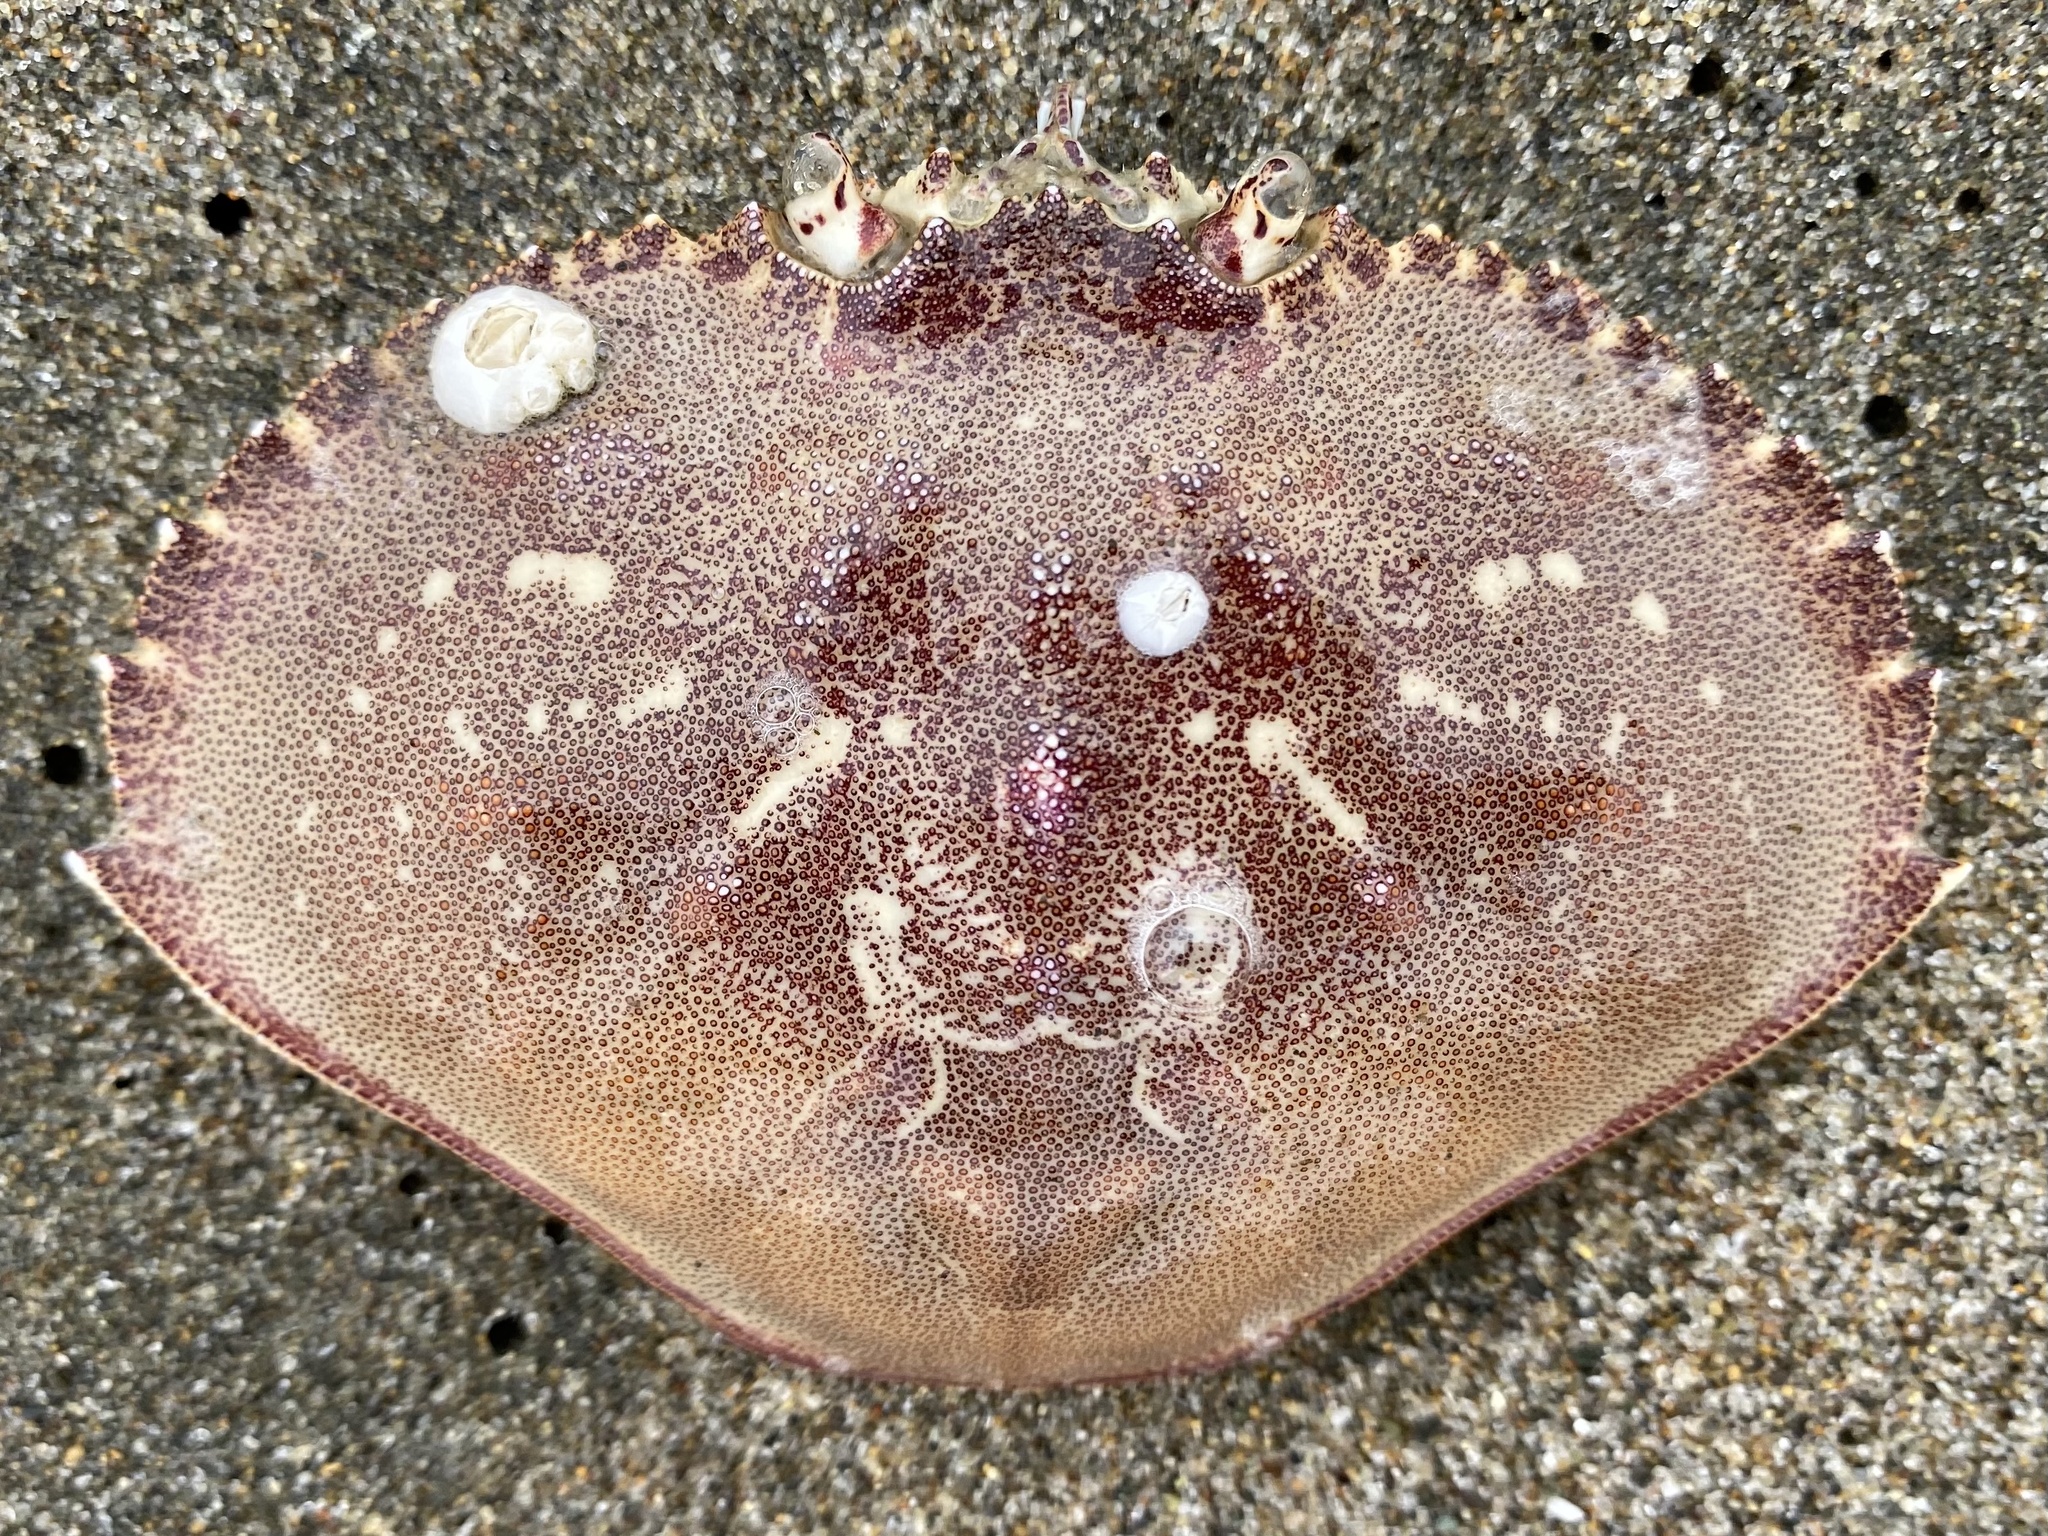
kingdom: Animalia
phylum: Arthropoda
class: Malacostraca
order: Decapoda
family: Cancridae
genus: Metacarcinus
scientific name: Metacarcinus magister
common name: Californian crab
